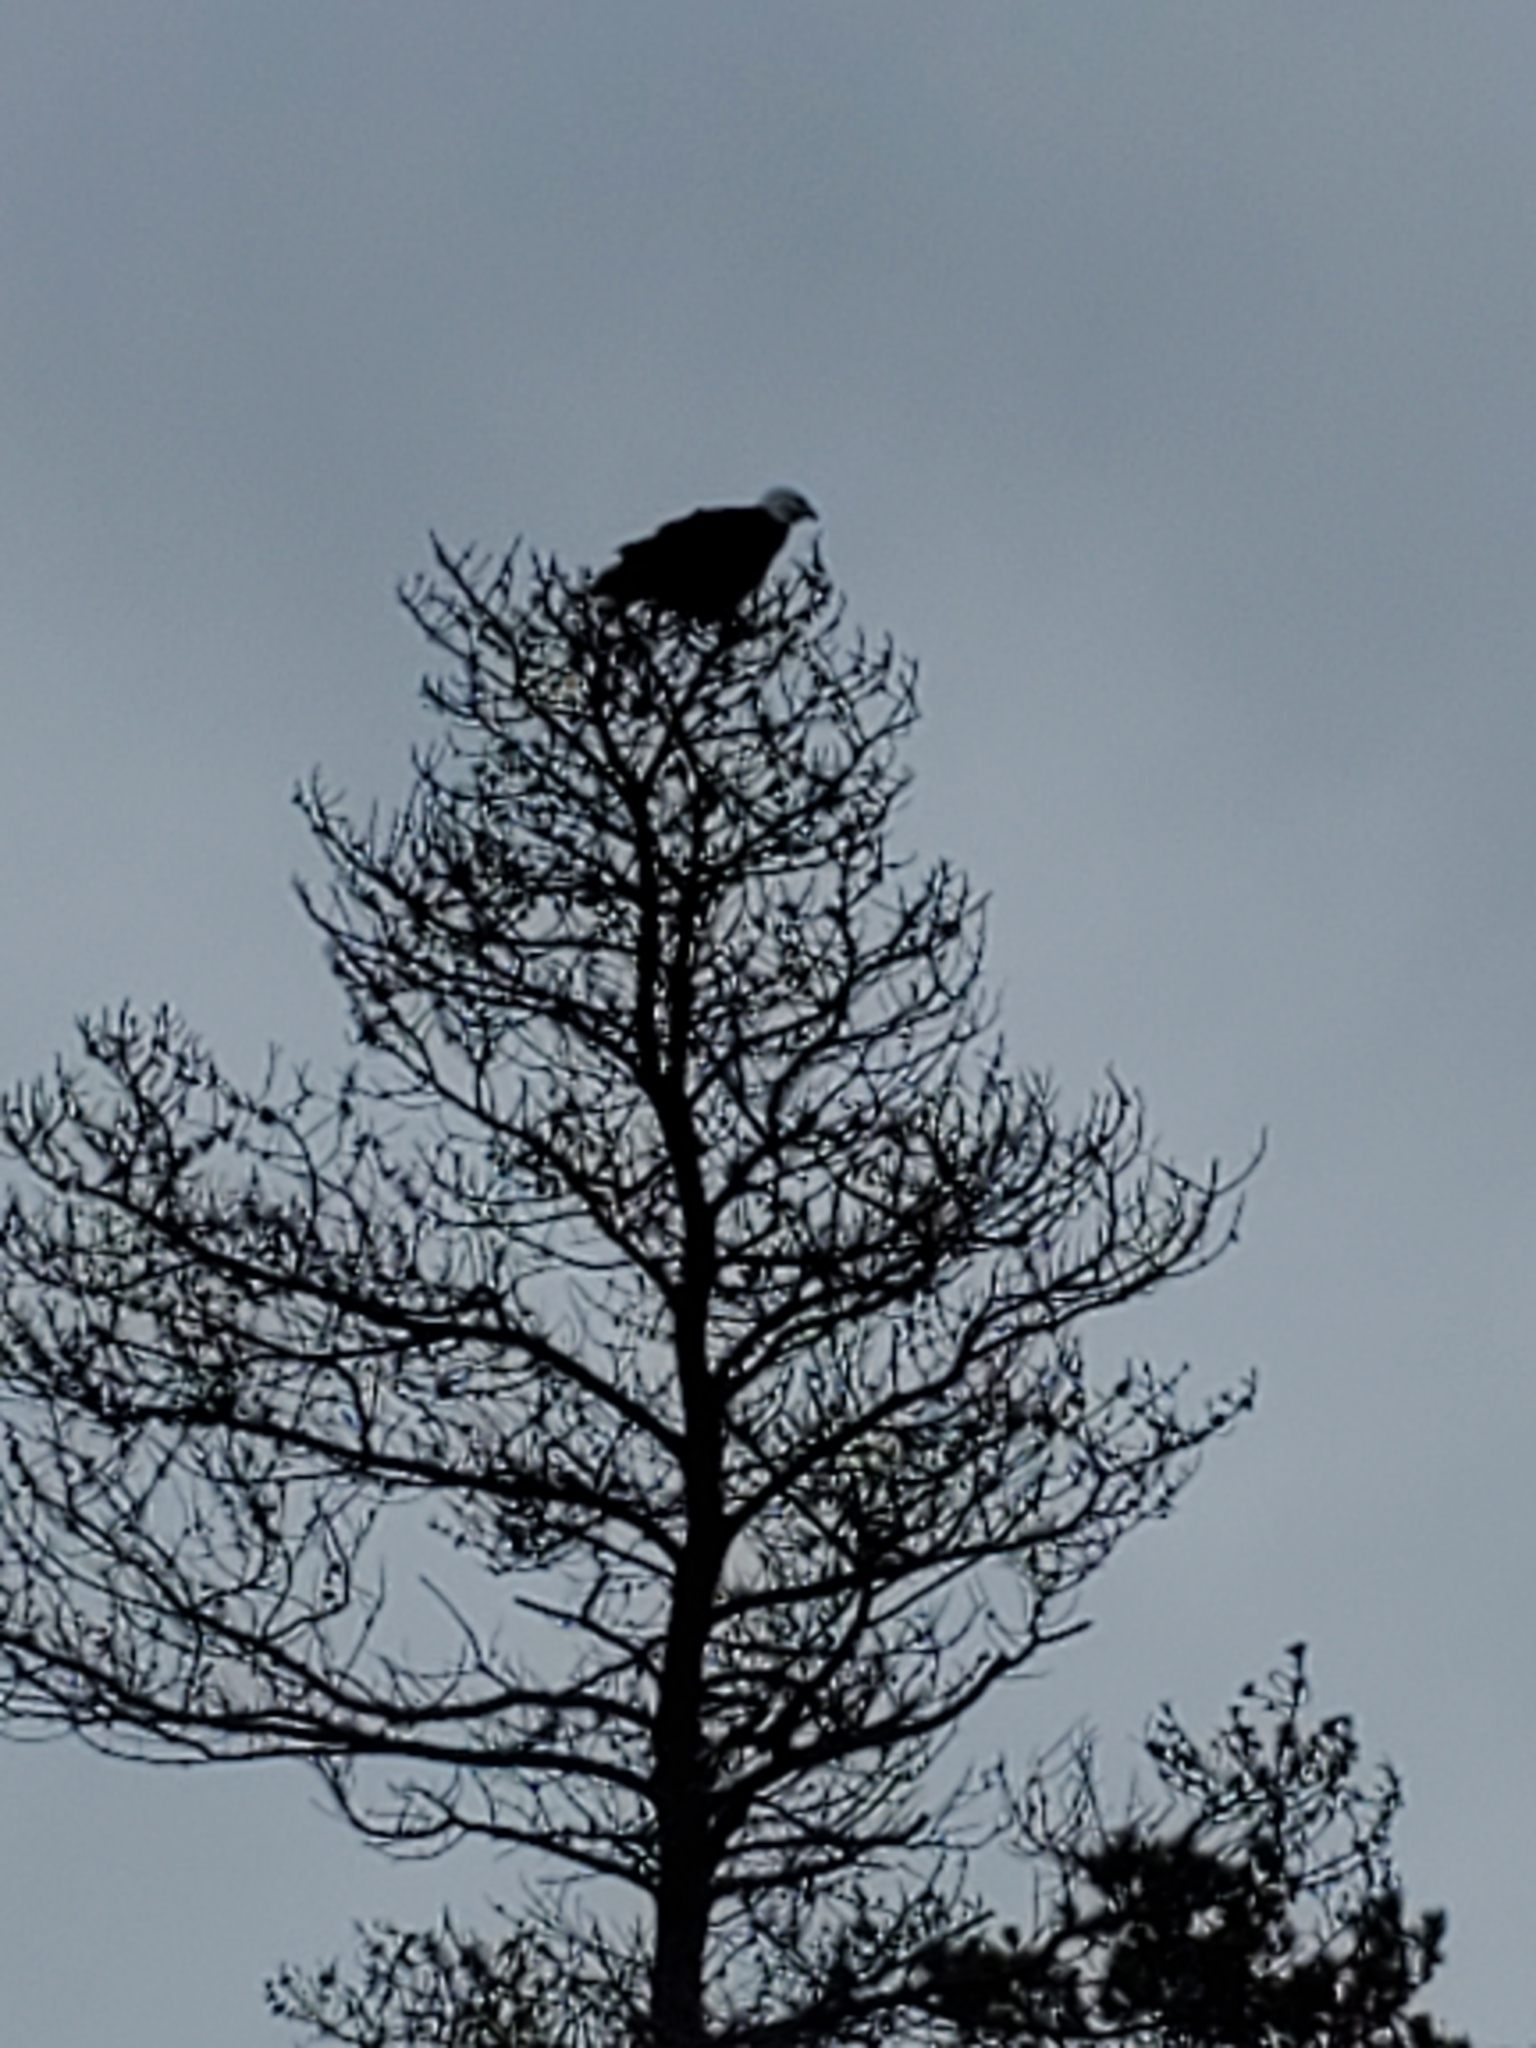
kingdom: Animalia
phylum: Chordata
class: Aves
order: Accipitriformes
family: Accipitridae
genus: Haliaeetus
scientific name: Haliaeetus leucocephalus
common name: Bald eagle
